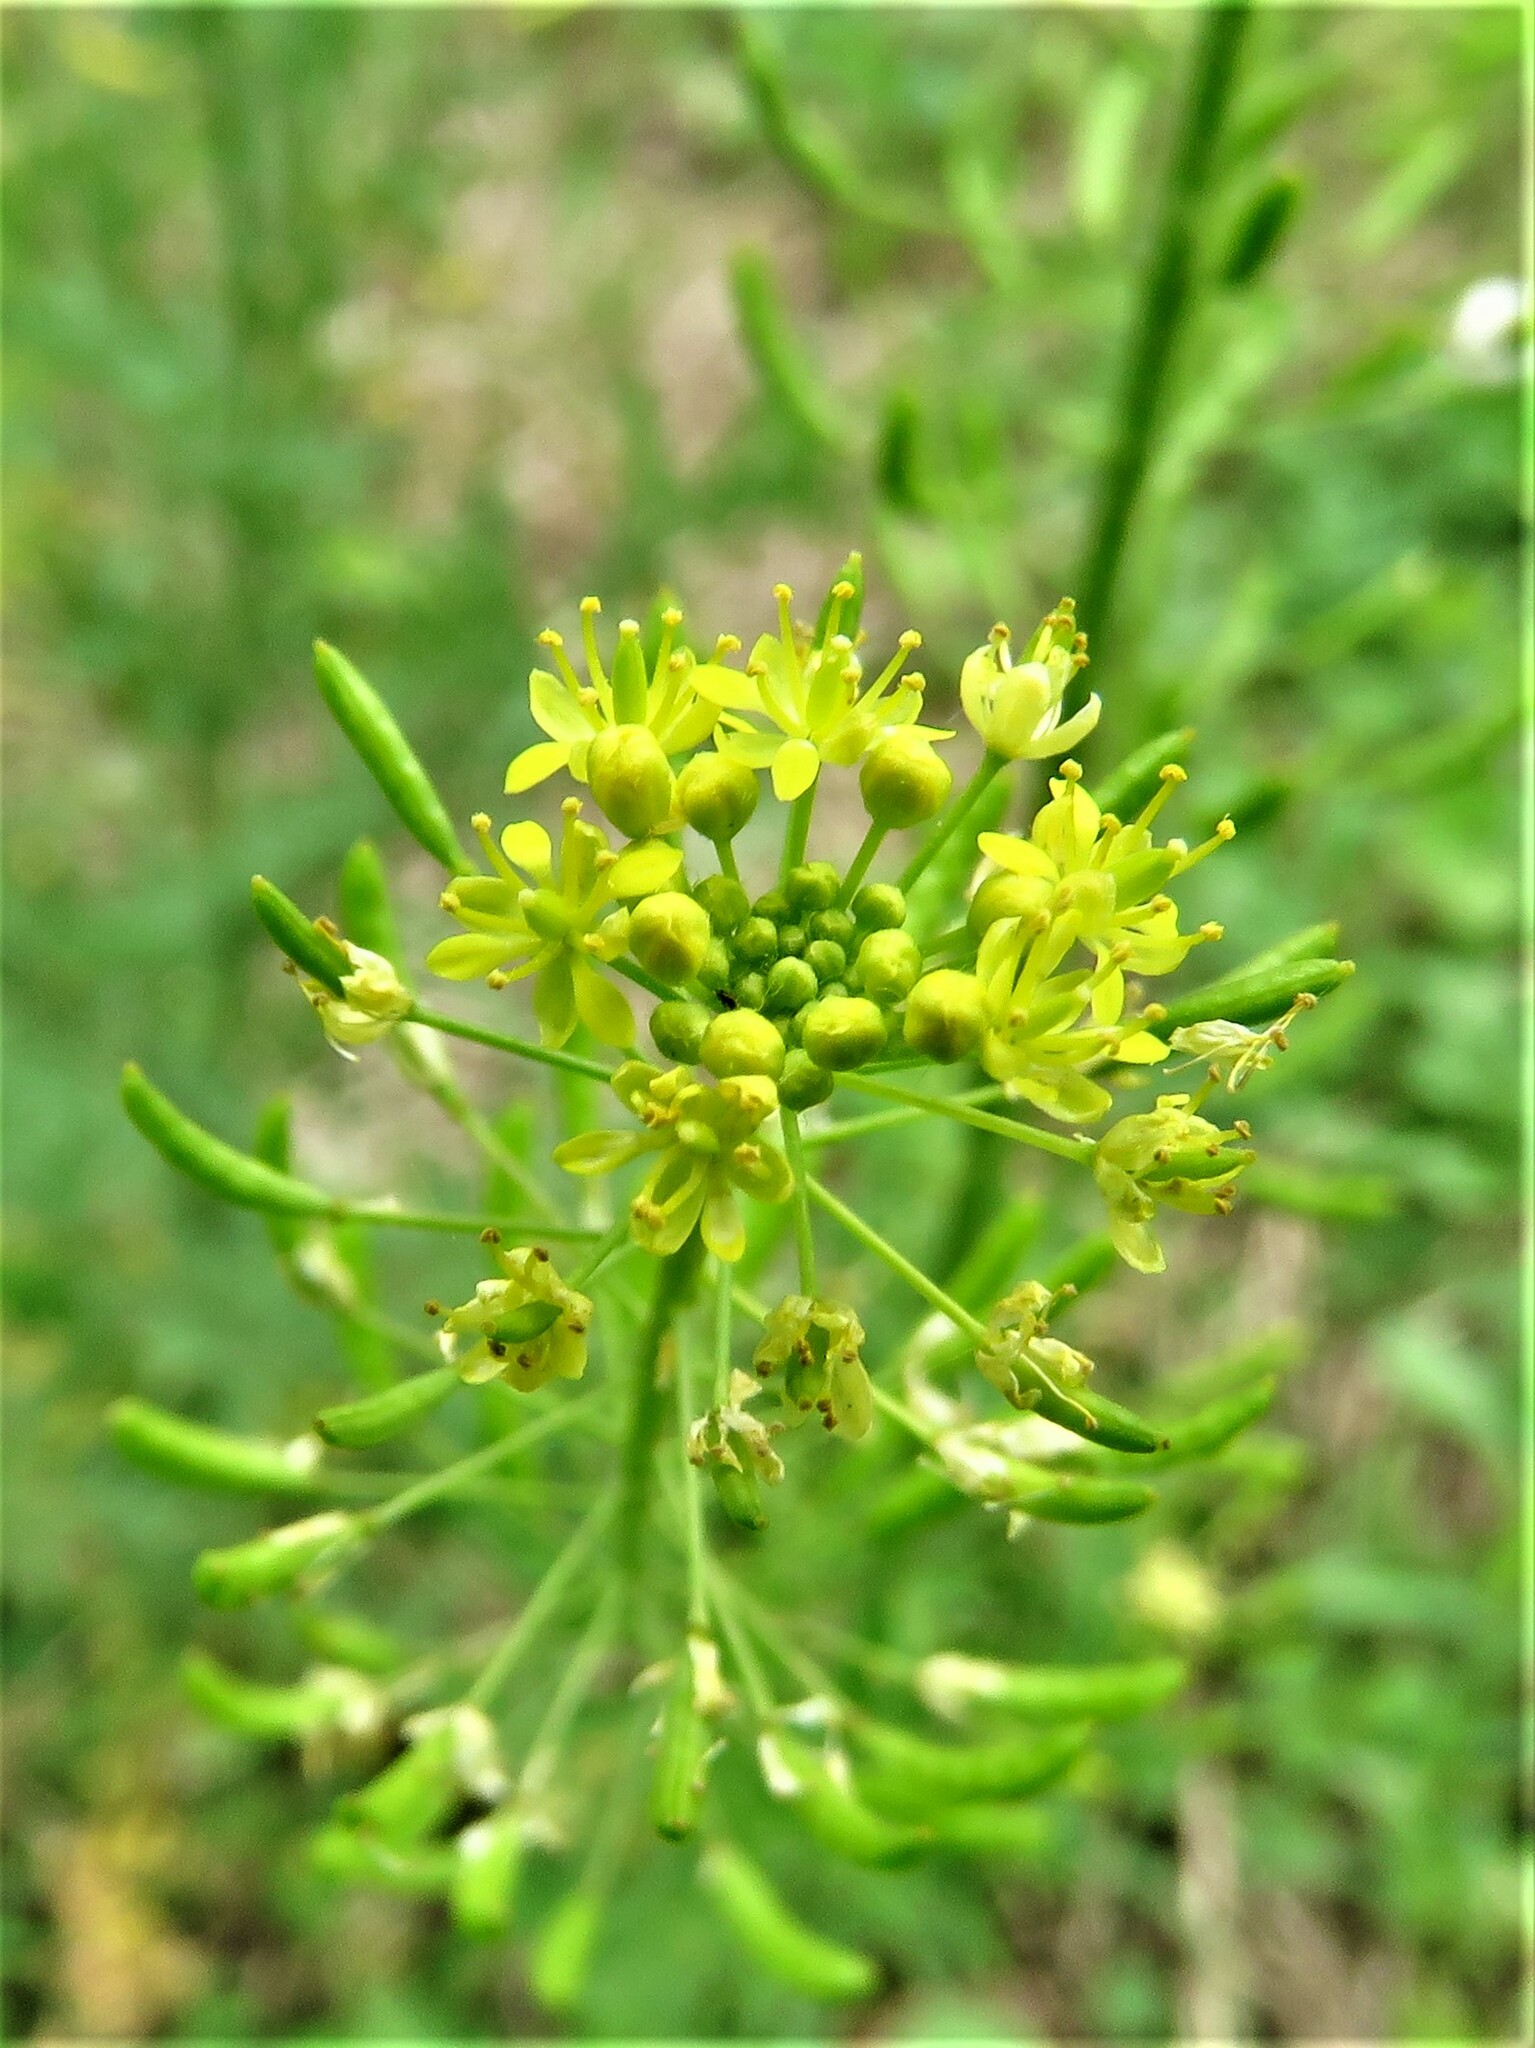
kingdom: Plantae
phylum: Tracheophyta
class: Magnoliopsida
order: Brassicales
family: Brassicaceae
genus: Descurainia
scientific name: Descurainia pinnata
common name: Western tansy mustard
